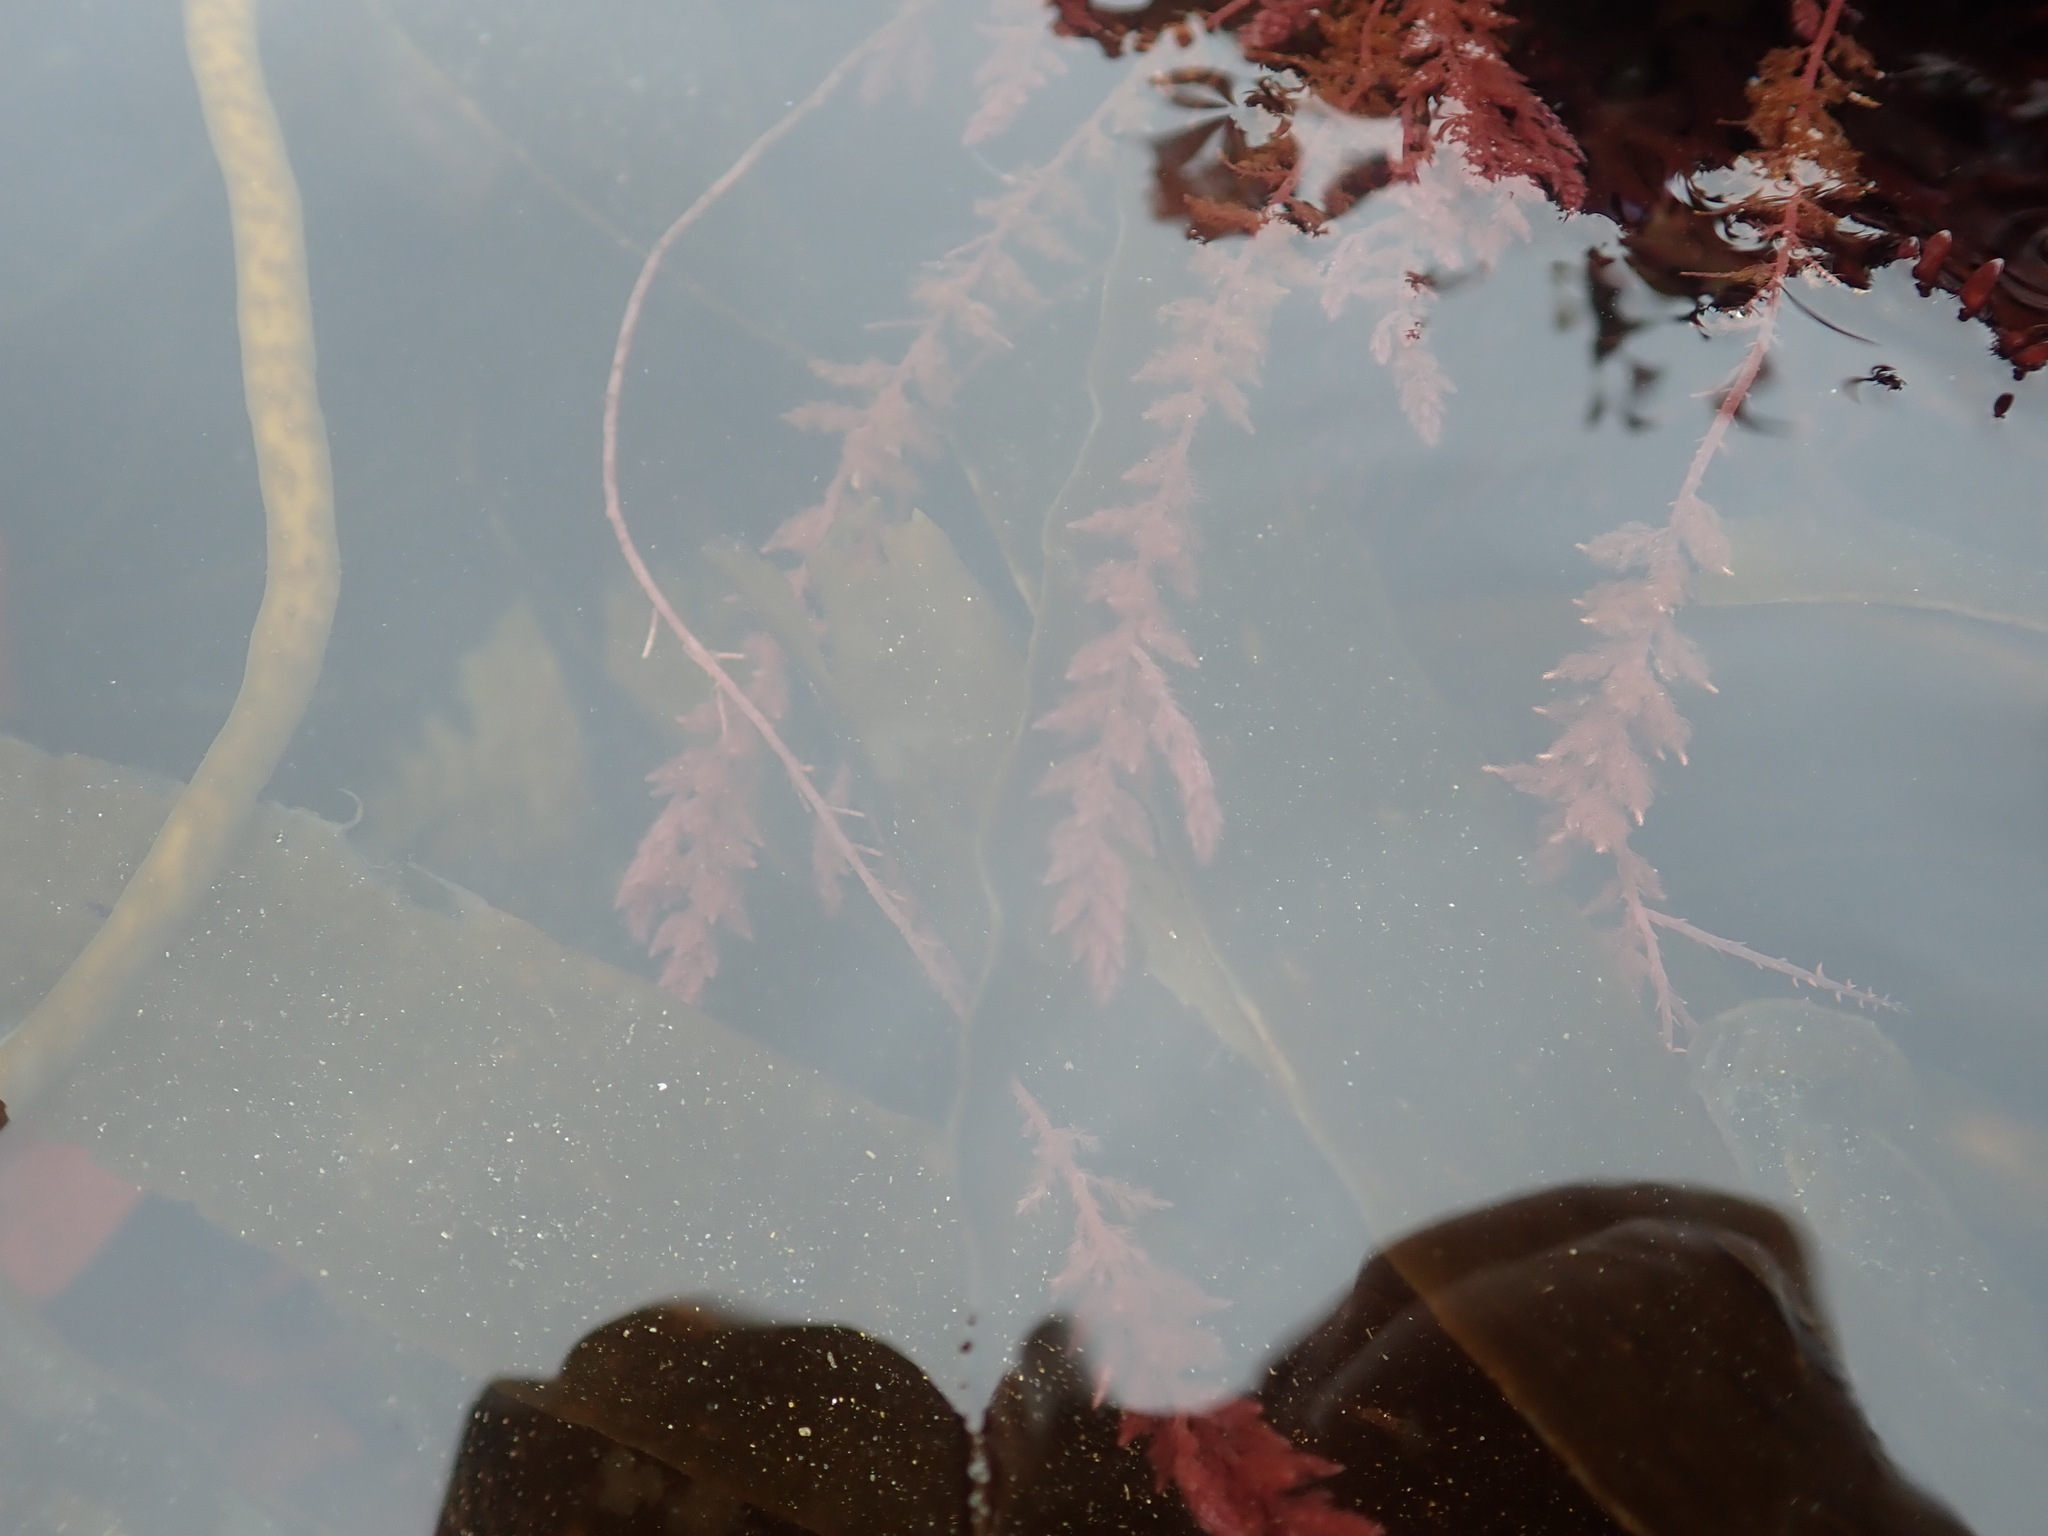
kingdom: Plantae
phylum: Rhodophyta
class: Florideophyceae
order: Bonnemaisoniales
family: Bonnemaisoniaceae
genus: Asparagopsis
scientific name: Asparagopsis armata
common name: Harpoon weed
